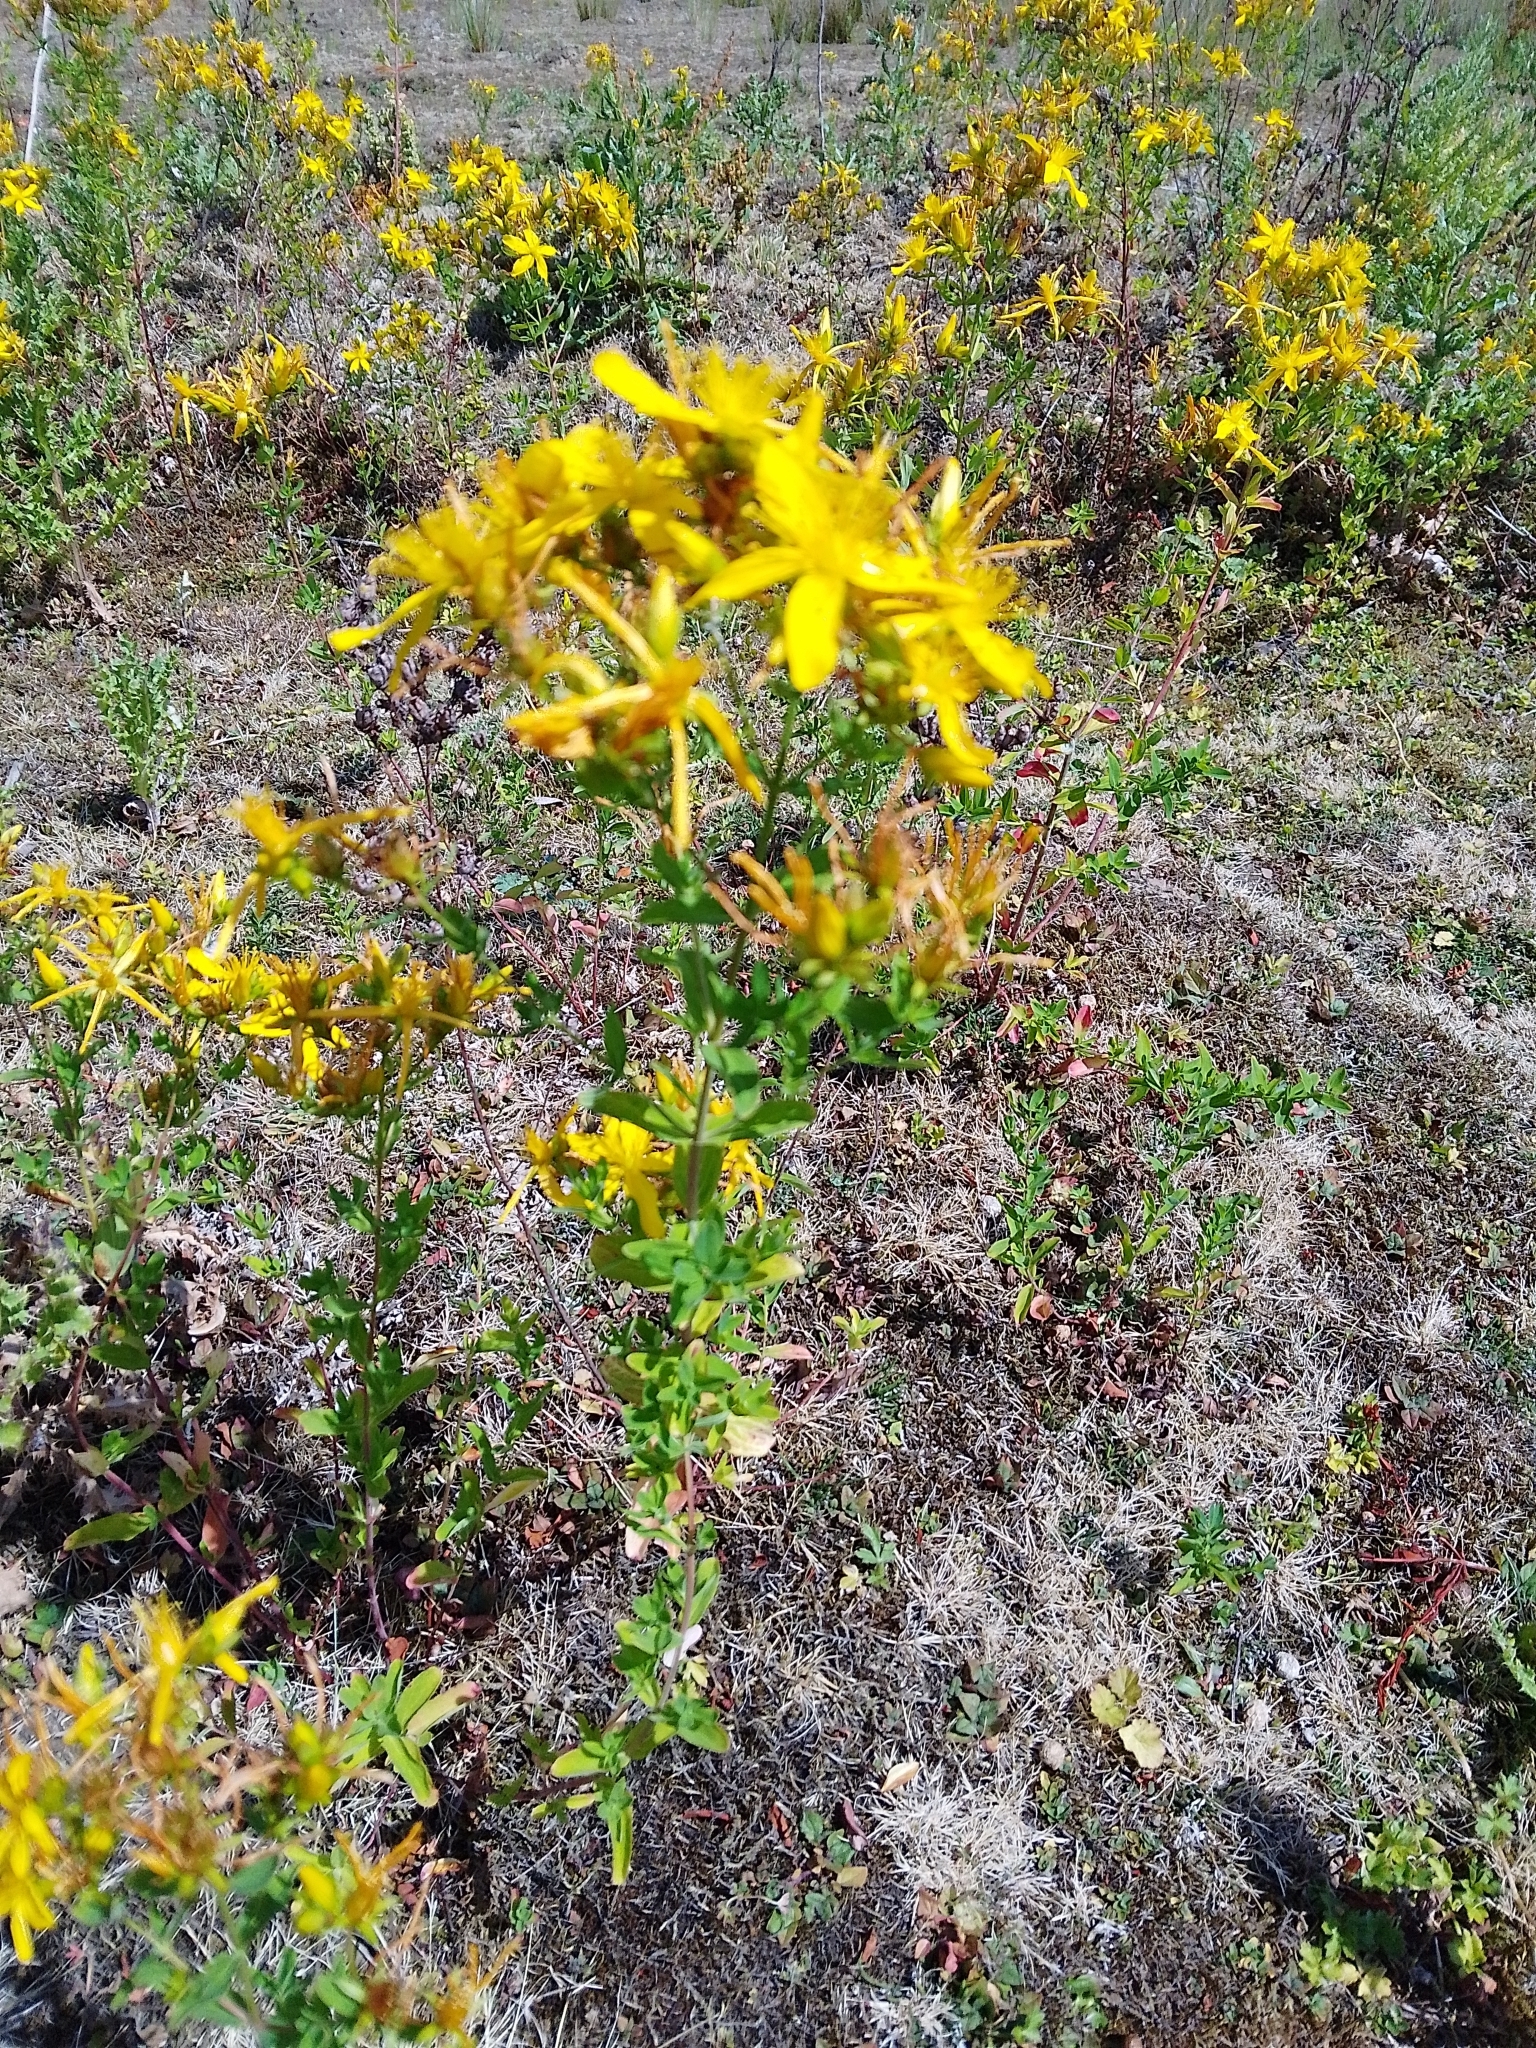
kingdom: Plantae
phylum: Tracheophyta
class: Magnoliopsida
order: Malpighiales
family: Hypericaceae
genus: Hypericum
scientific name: Hypericum perforatum
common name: Common st. johnswort
